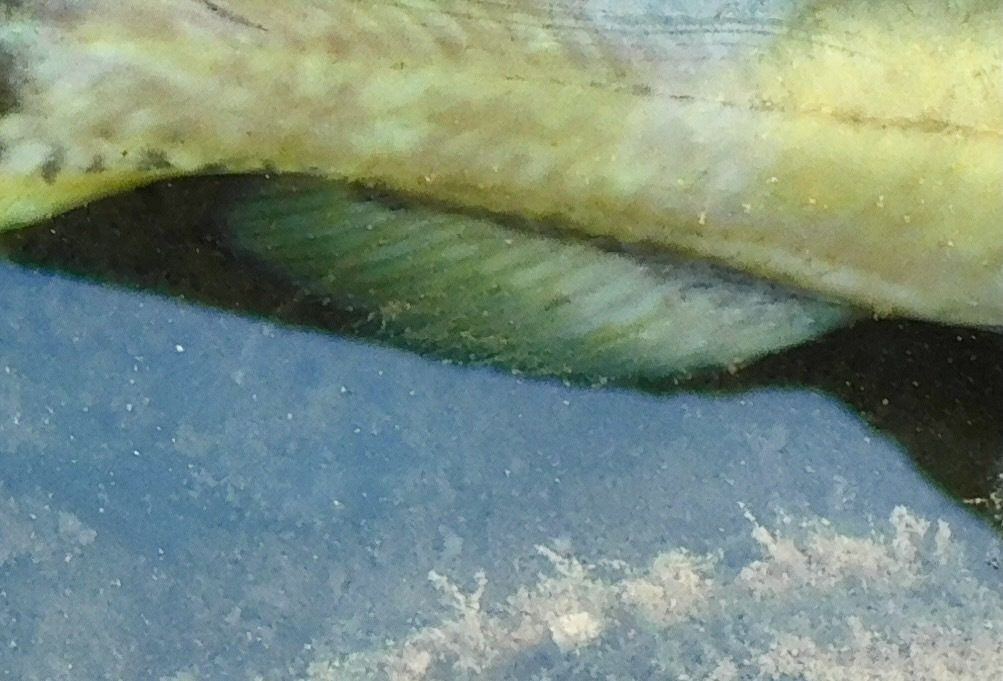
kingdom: Animalia
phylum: Chordata
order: Siluriformes
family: Ictaluridae
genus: Ameiurus
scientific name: Ameiurus brunneus
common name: Snail bullhead
